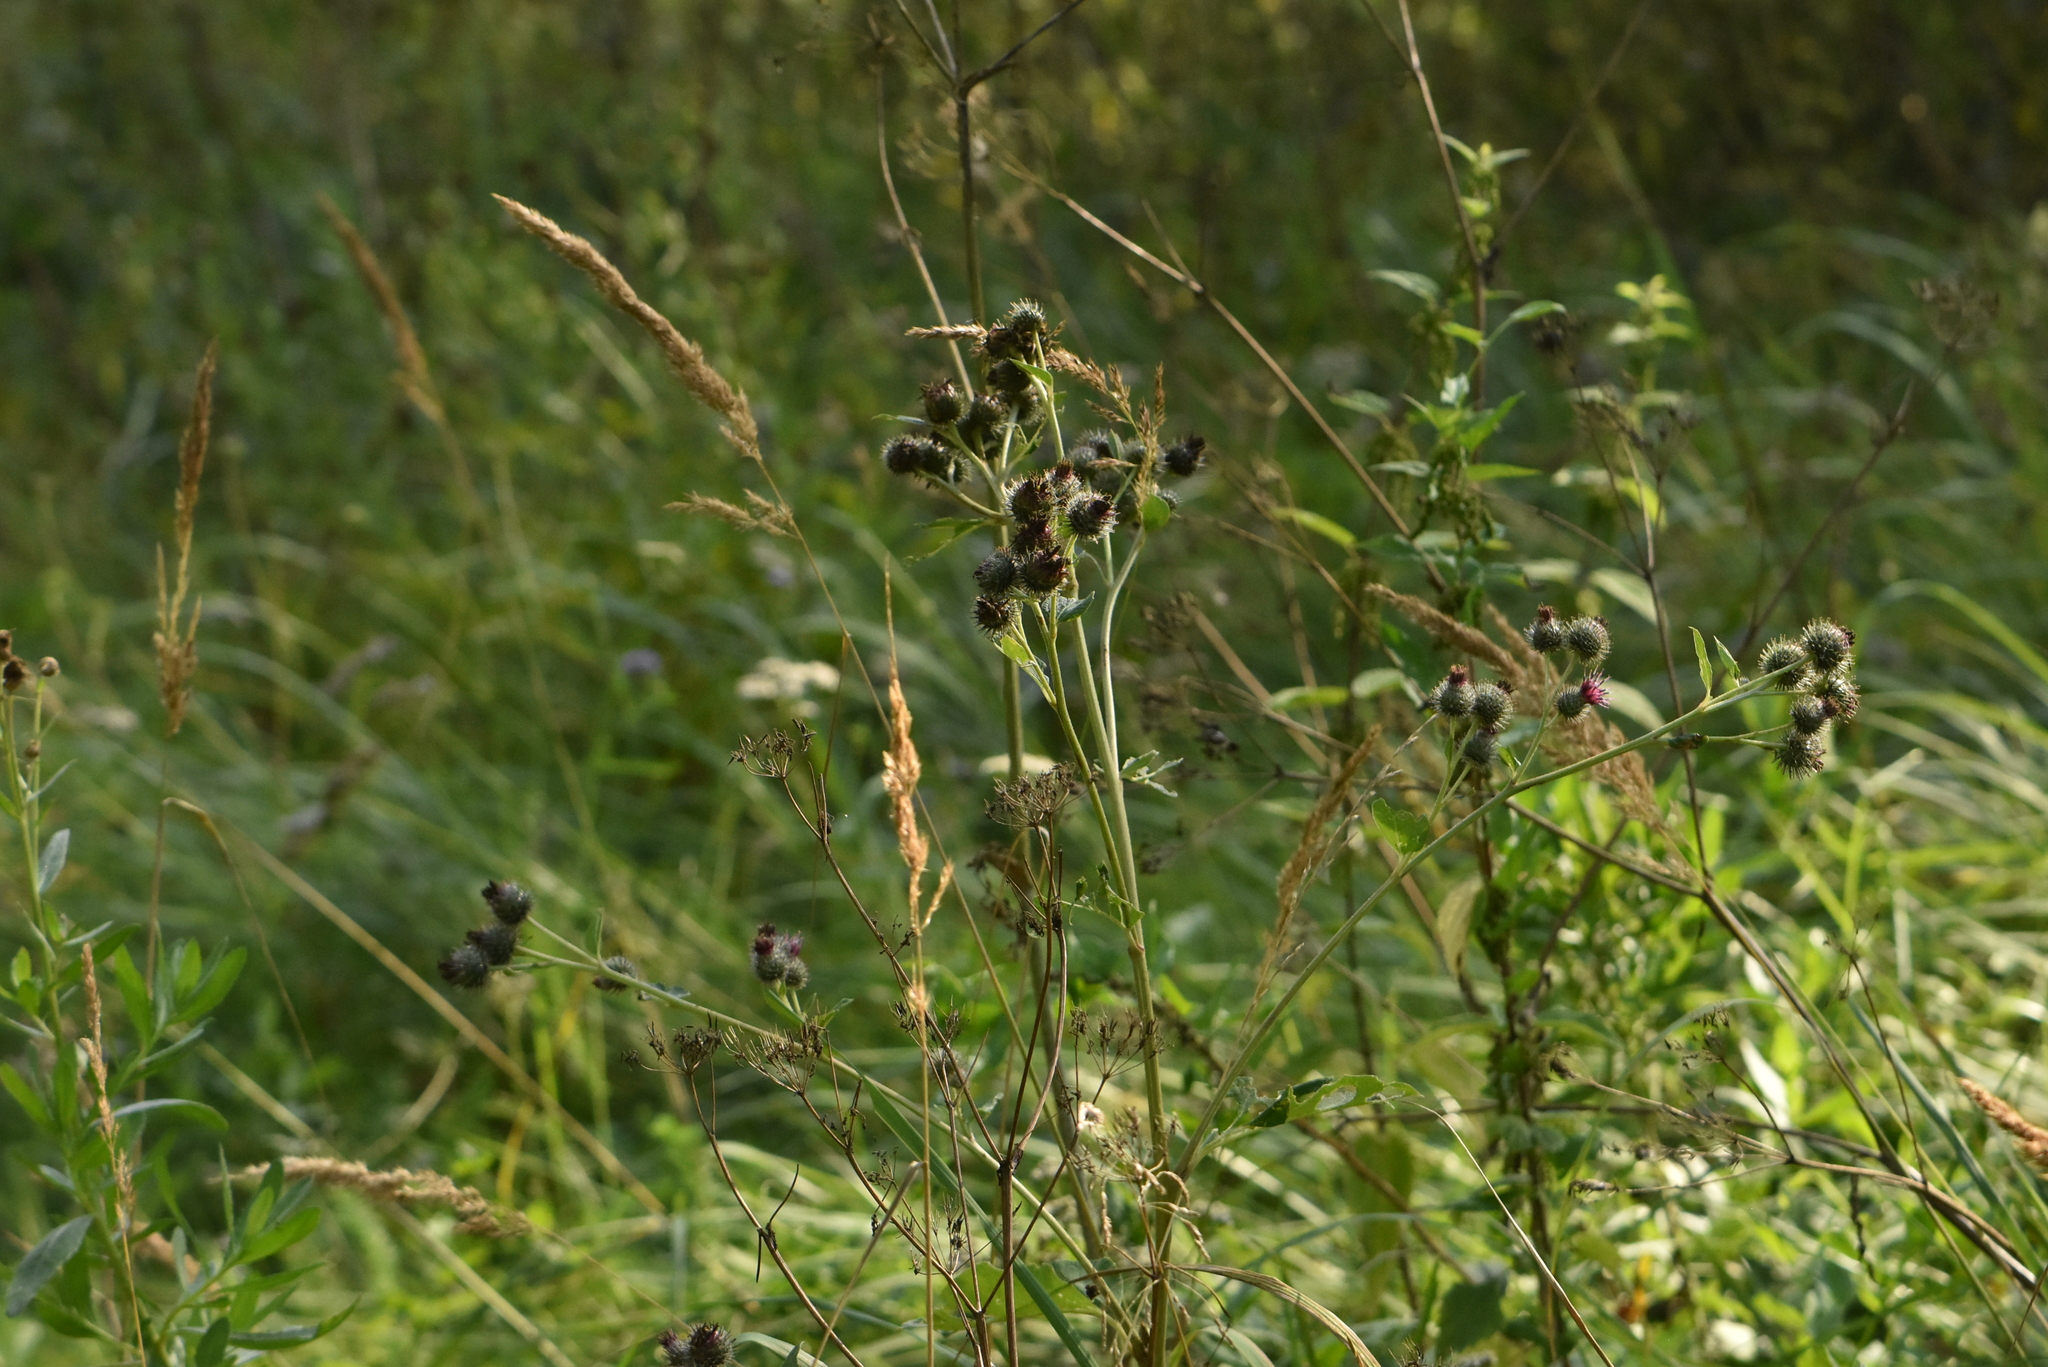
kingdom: Plantae
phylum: Tracheophyta
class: Magnoliopsida
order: Asterales
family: Asteraceae
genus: Arctium
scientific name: Arctium tomentosum
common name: Woolly burdock
